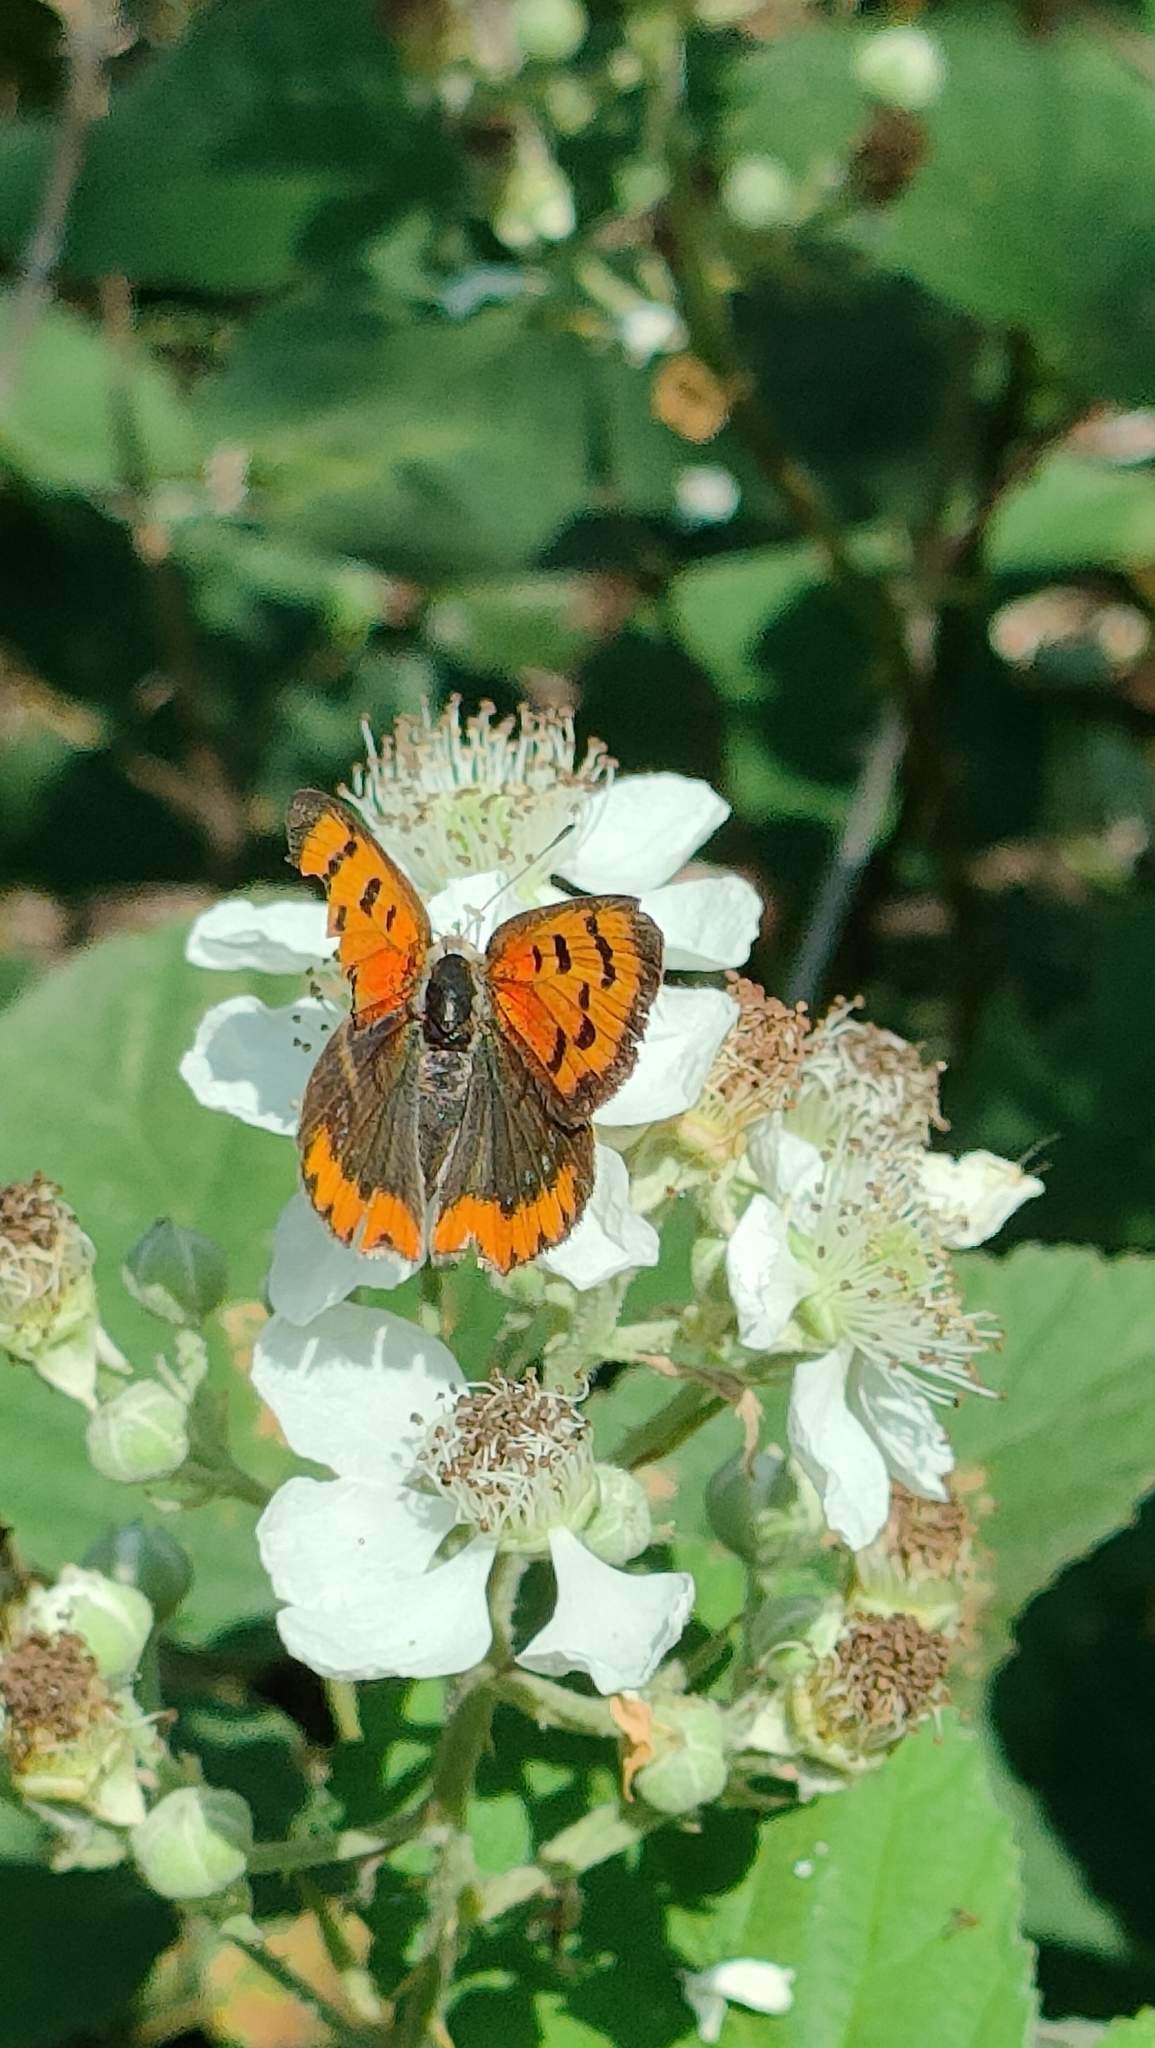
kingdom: Animalia
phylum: Arthropoda
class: Insecta
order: Lepidoptera
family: Lycaenidae
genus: Lycaena
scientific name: Lycaena phlaeas
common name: Small copper
